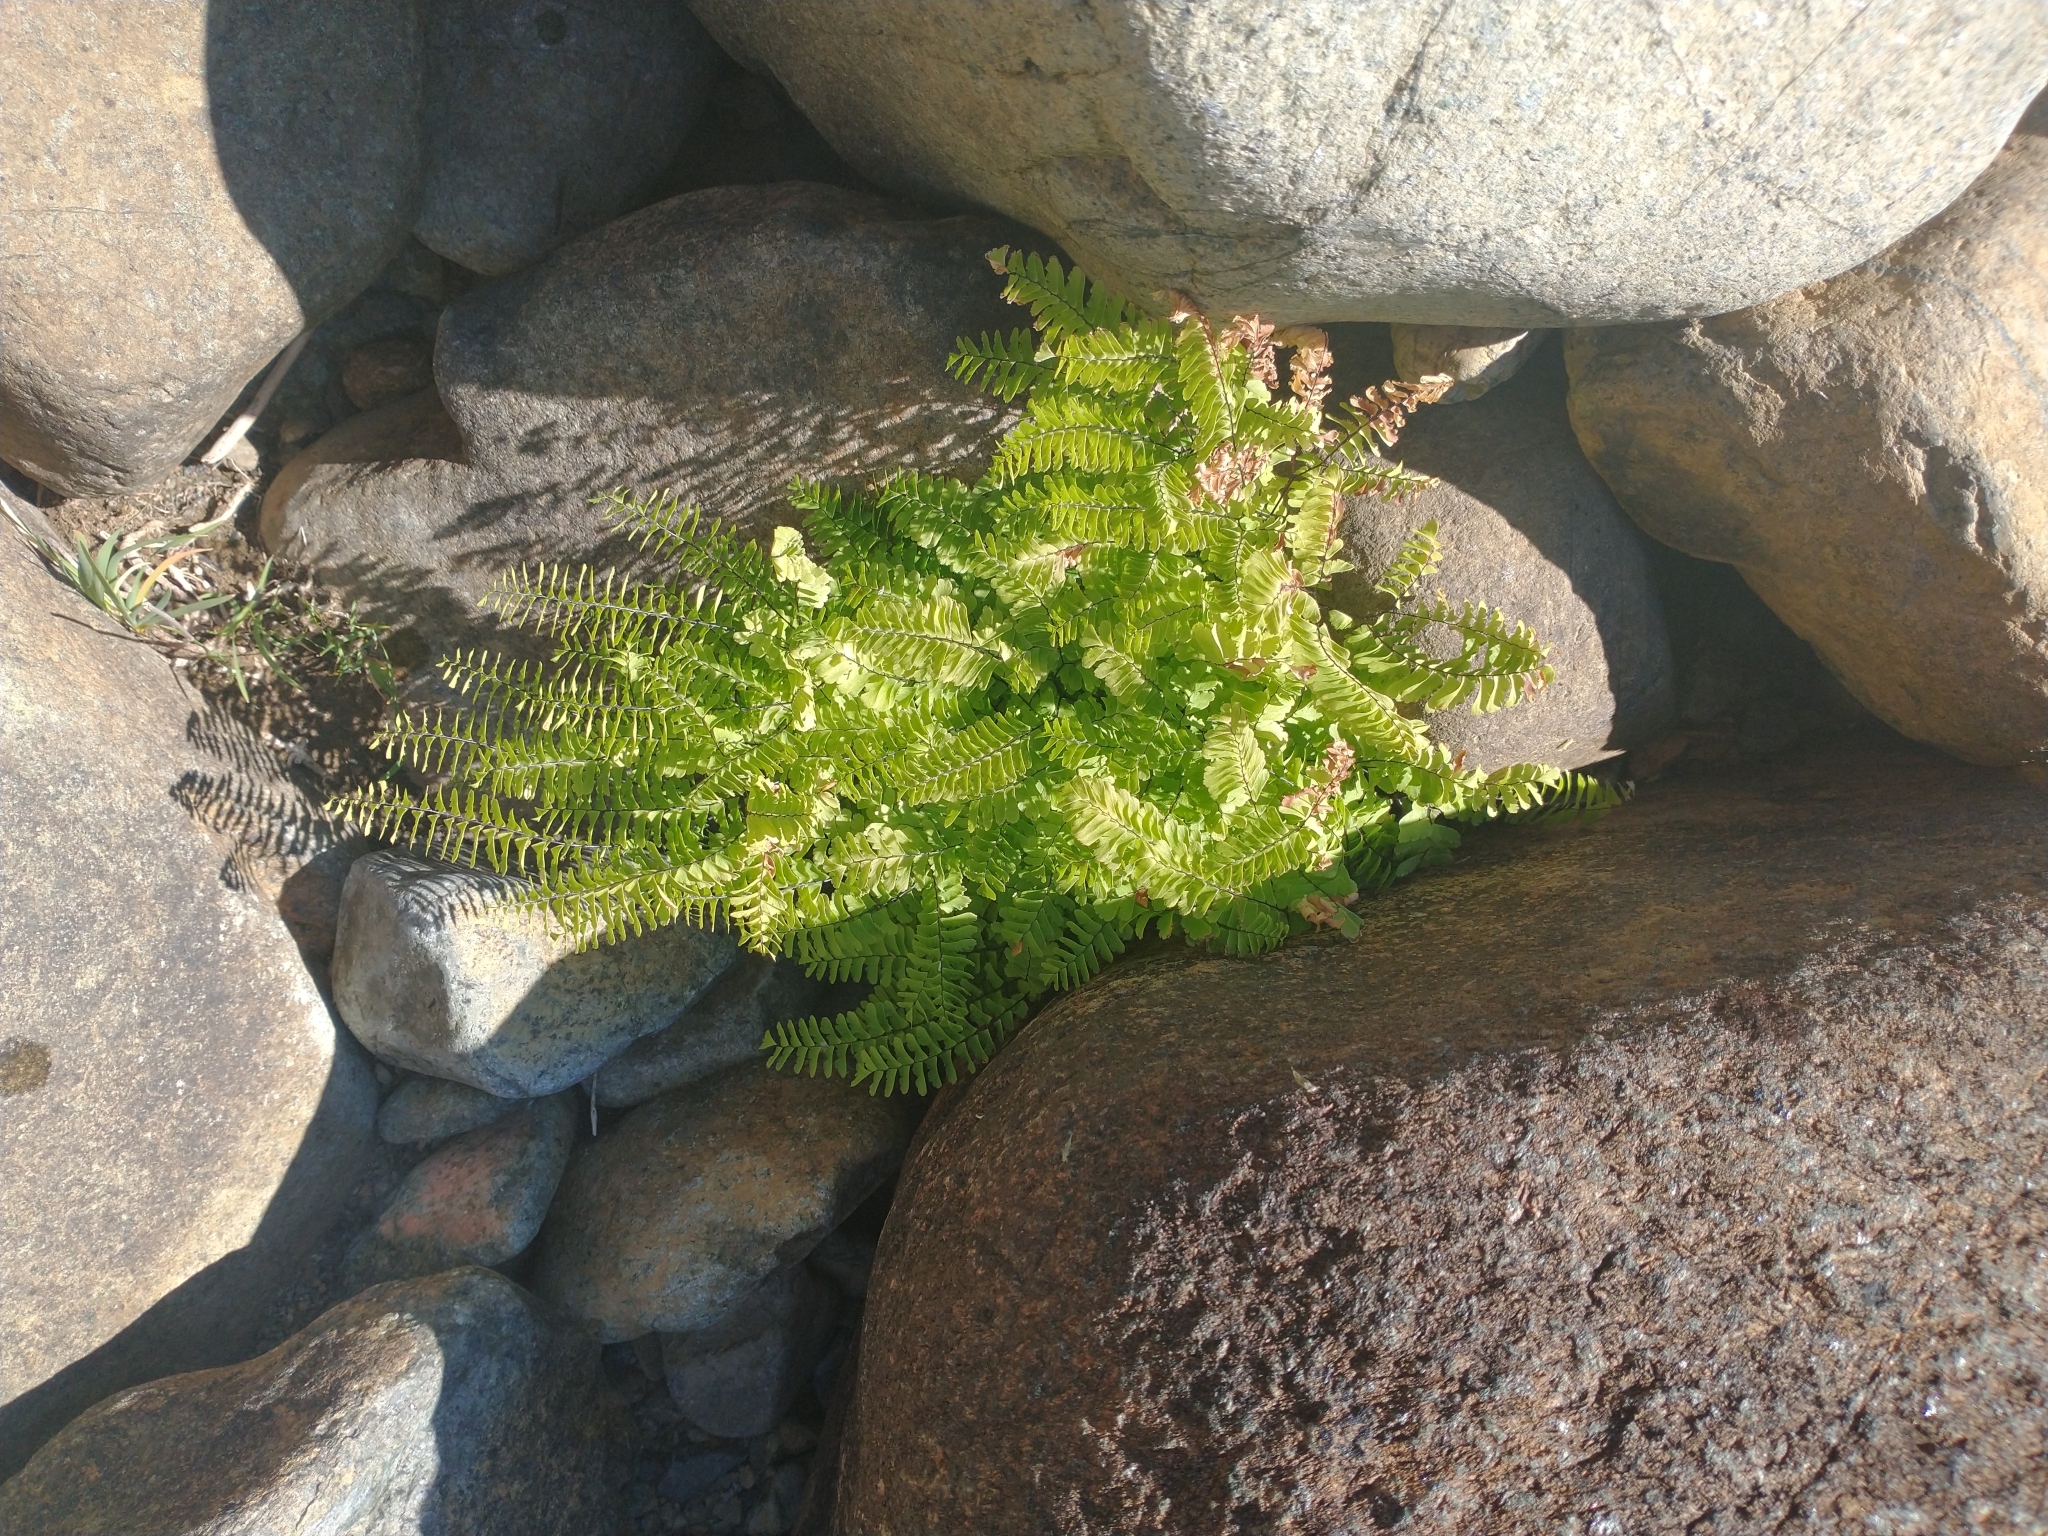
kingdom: Plantae
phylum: Tracheophyta
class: Polypodiopsida
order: Polypodiales
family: Pteridaceae
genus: Adiantum
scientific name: Adiantum aleuticum
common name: Aleutian maidenhair fern
